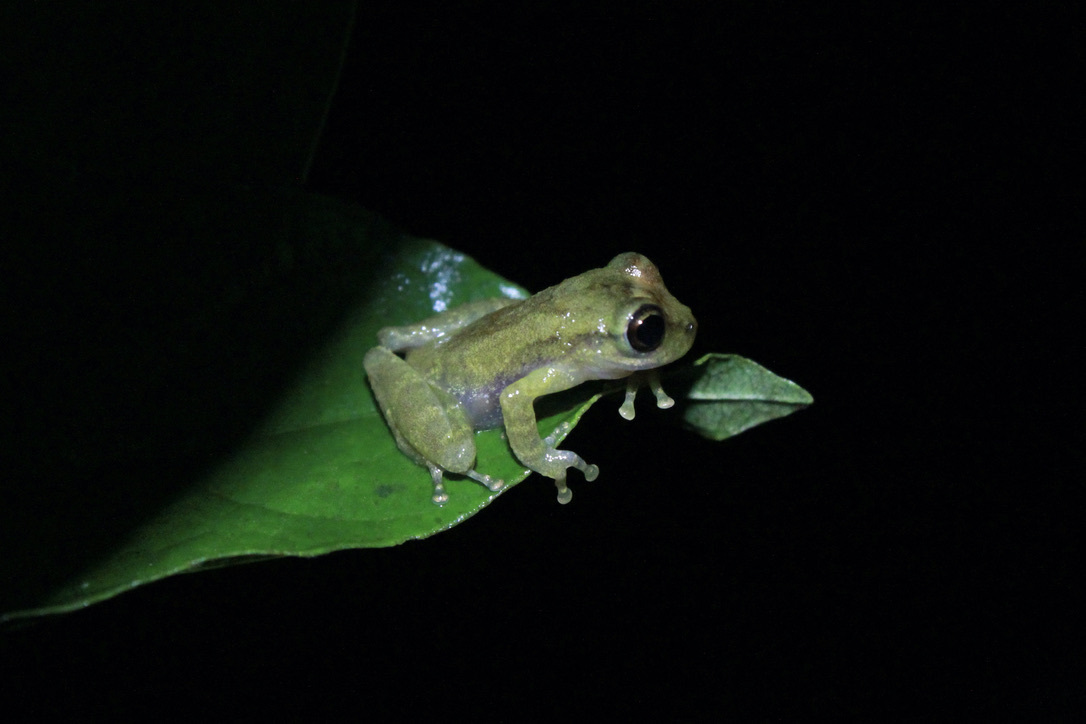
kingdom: Animalia
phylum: Chordata
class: Amphibia
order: Anura
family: Hemiphractidae
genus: Flectonotus
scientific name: Flectonotus fitzgeraldi
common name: Marsupial frog
